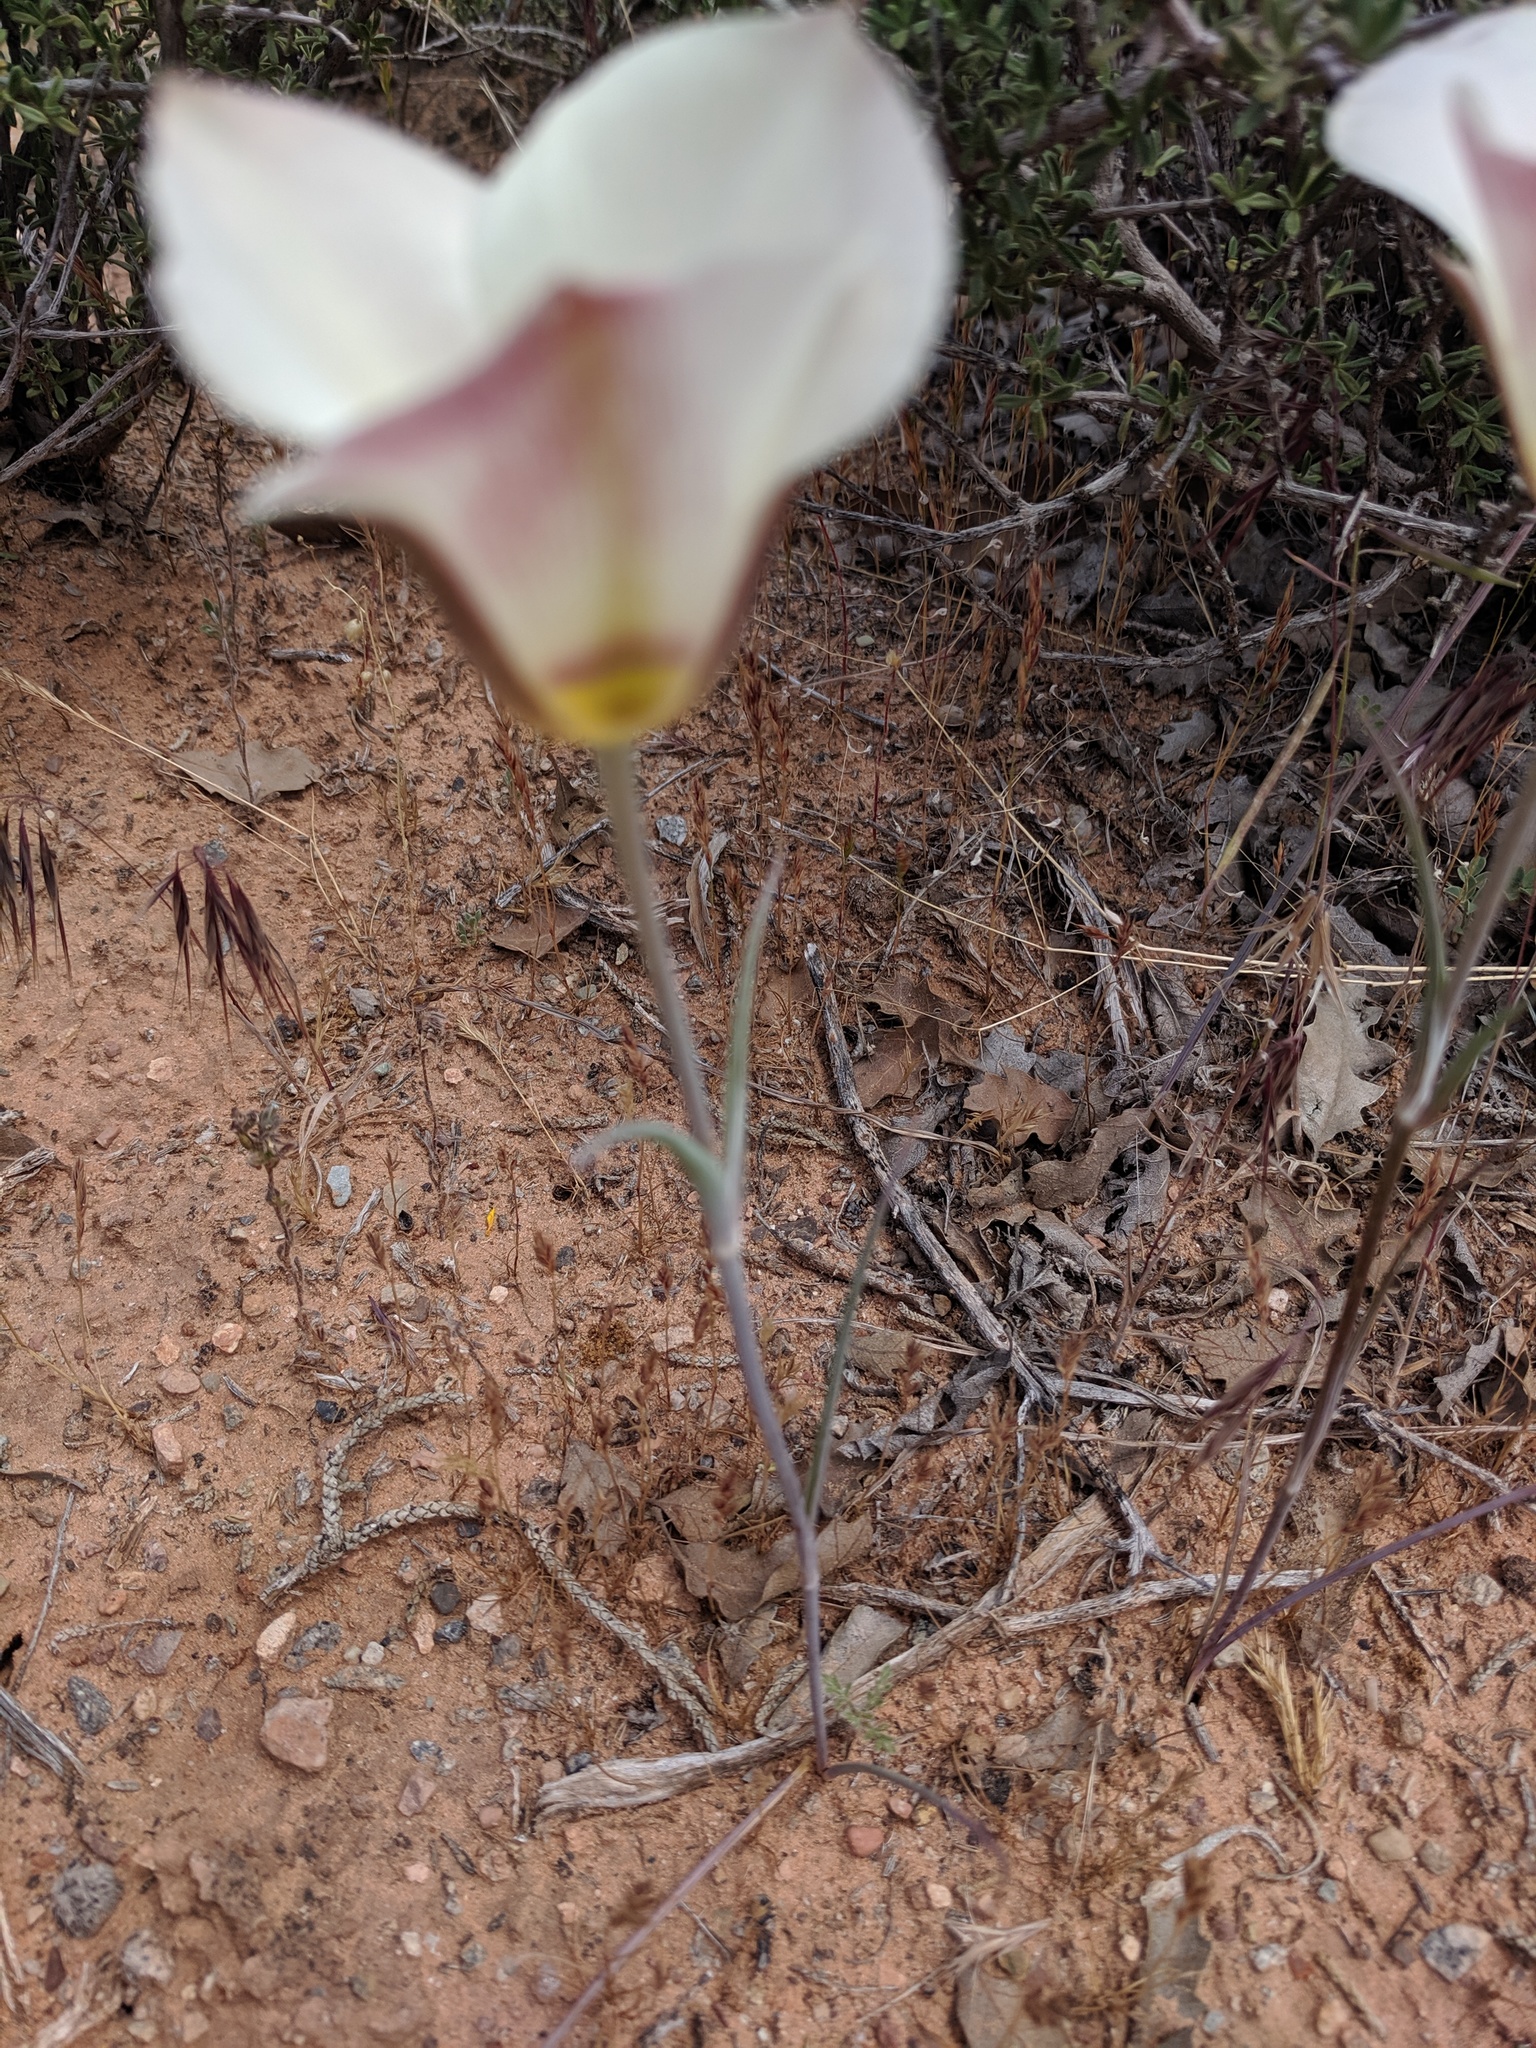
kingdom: Plantae
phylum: Tracheophyta
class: Liliopsida
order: Liliales
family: Liliaceae
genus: Calochortus
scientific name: Calochortus nuttallii
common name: Sego-lily
